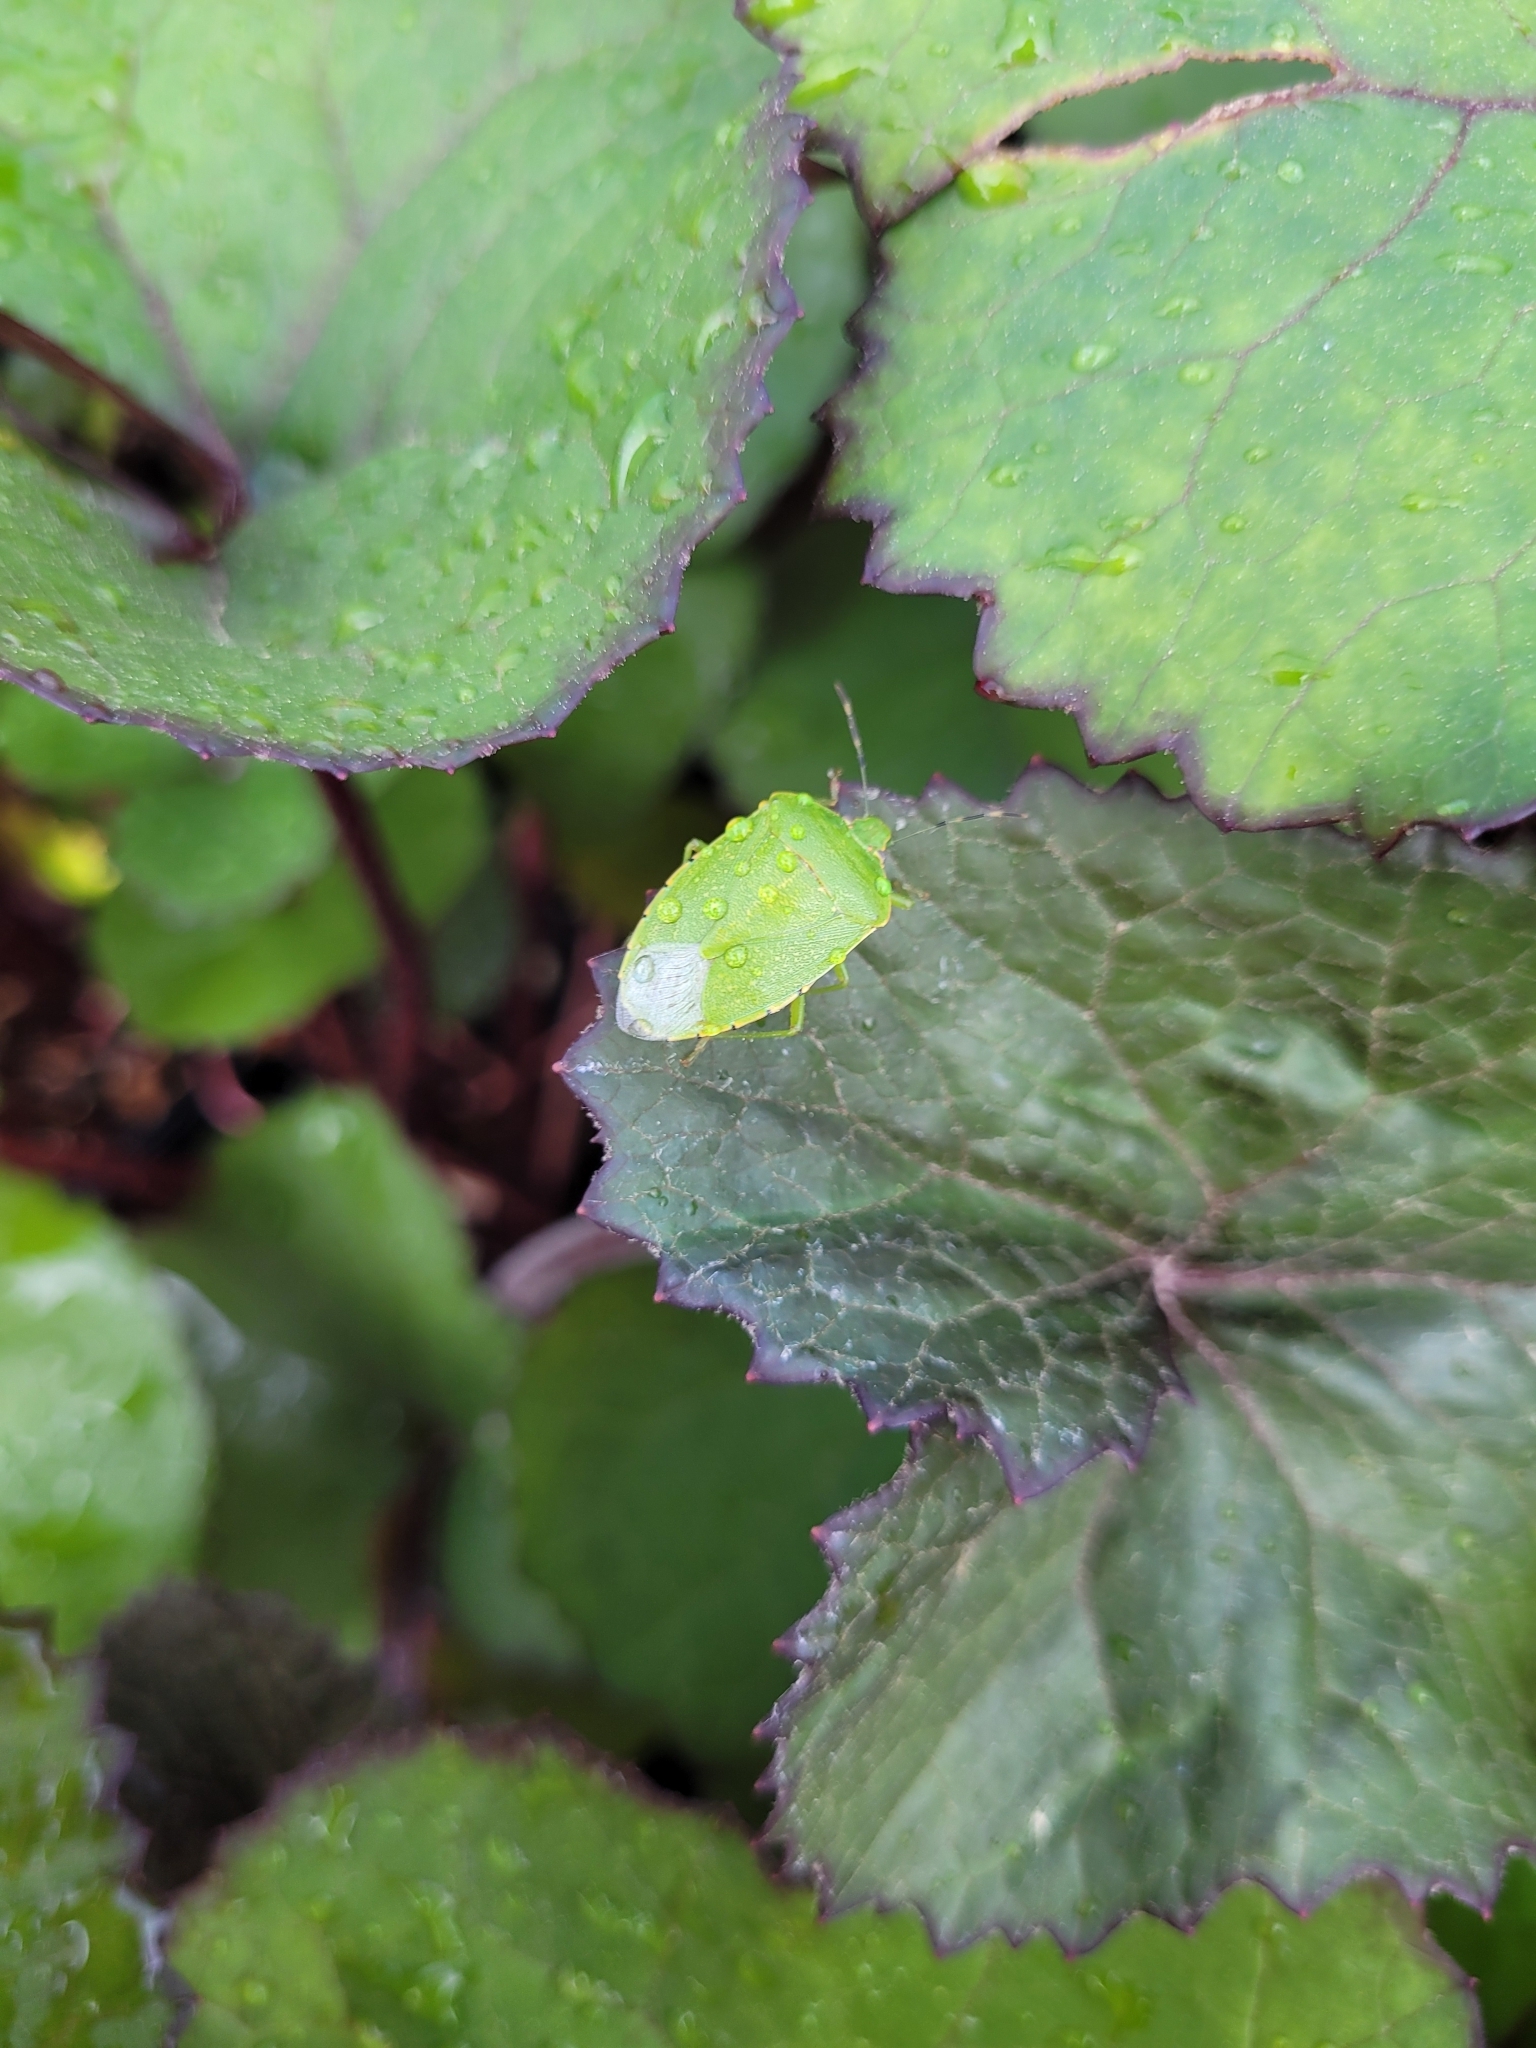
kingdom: Animalia
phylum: Arthropoda
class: Insecta
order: Hemiptera
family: Pentatomidae
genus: Chinavia
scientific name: Chinavia hilaris
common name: Green stink bug
